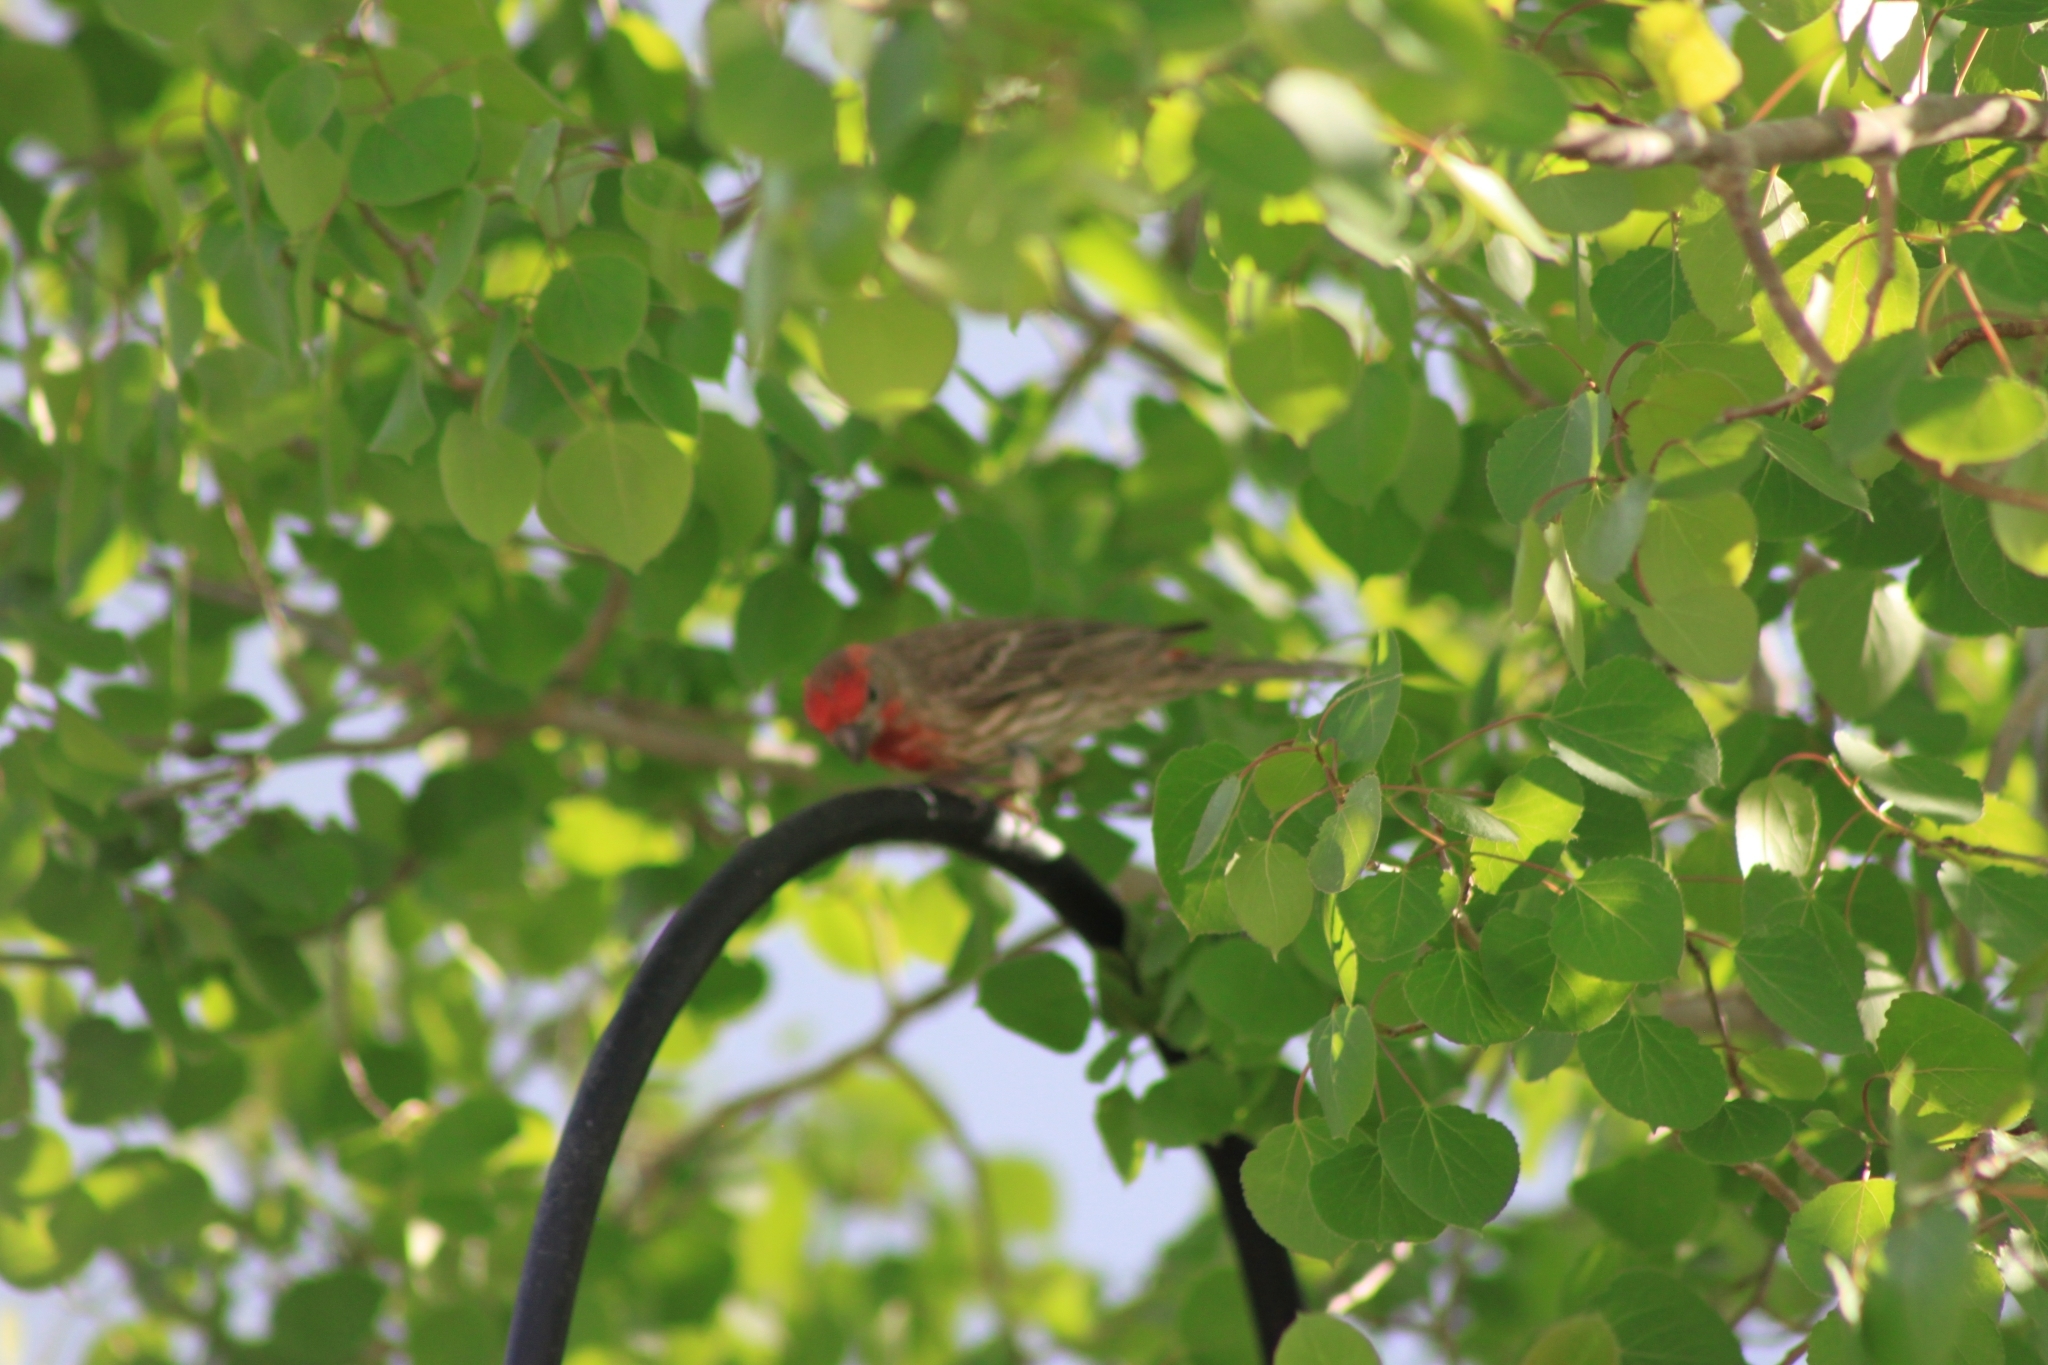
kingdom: Animalia
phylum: Chordata
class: Aves
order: Passeriformes
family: Fringillidae
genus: Haemorhous
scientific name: Haemorhous mexicanus
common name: House finch
